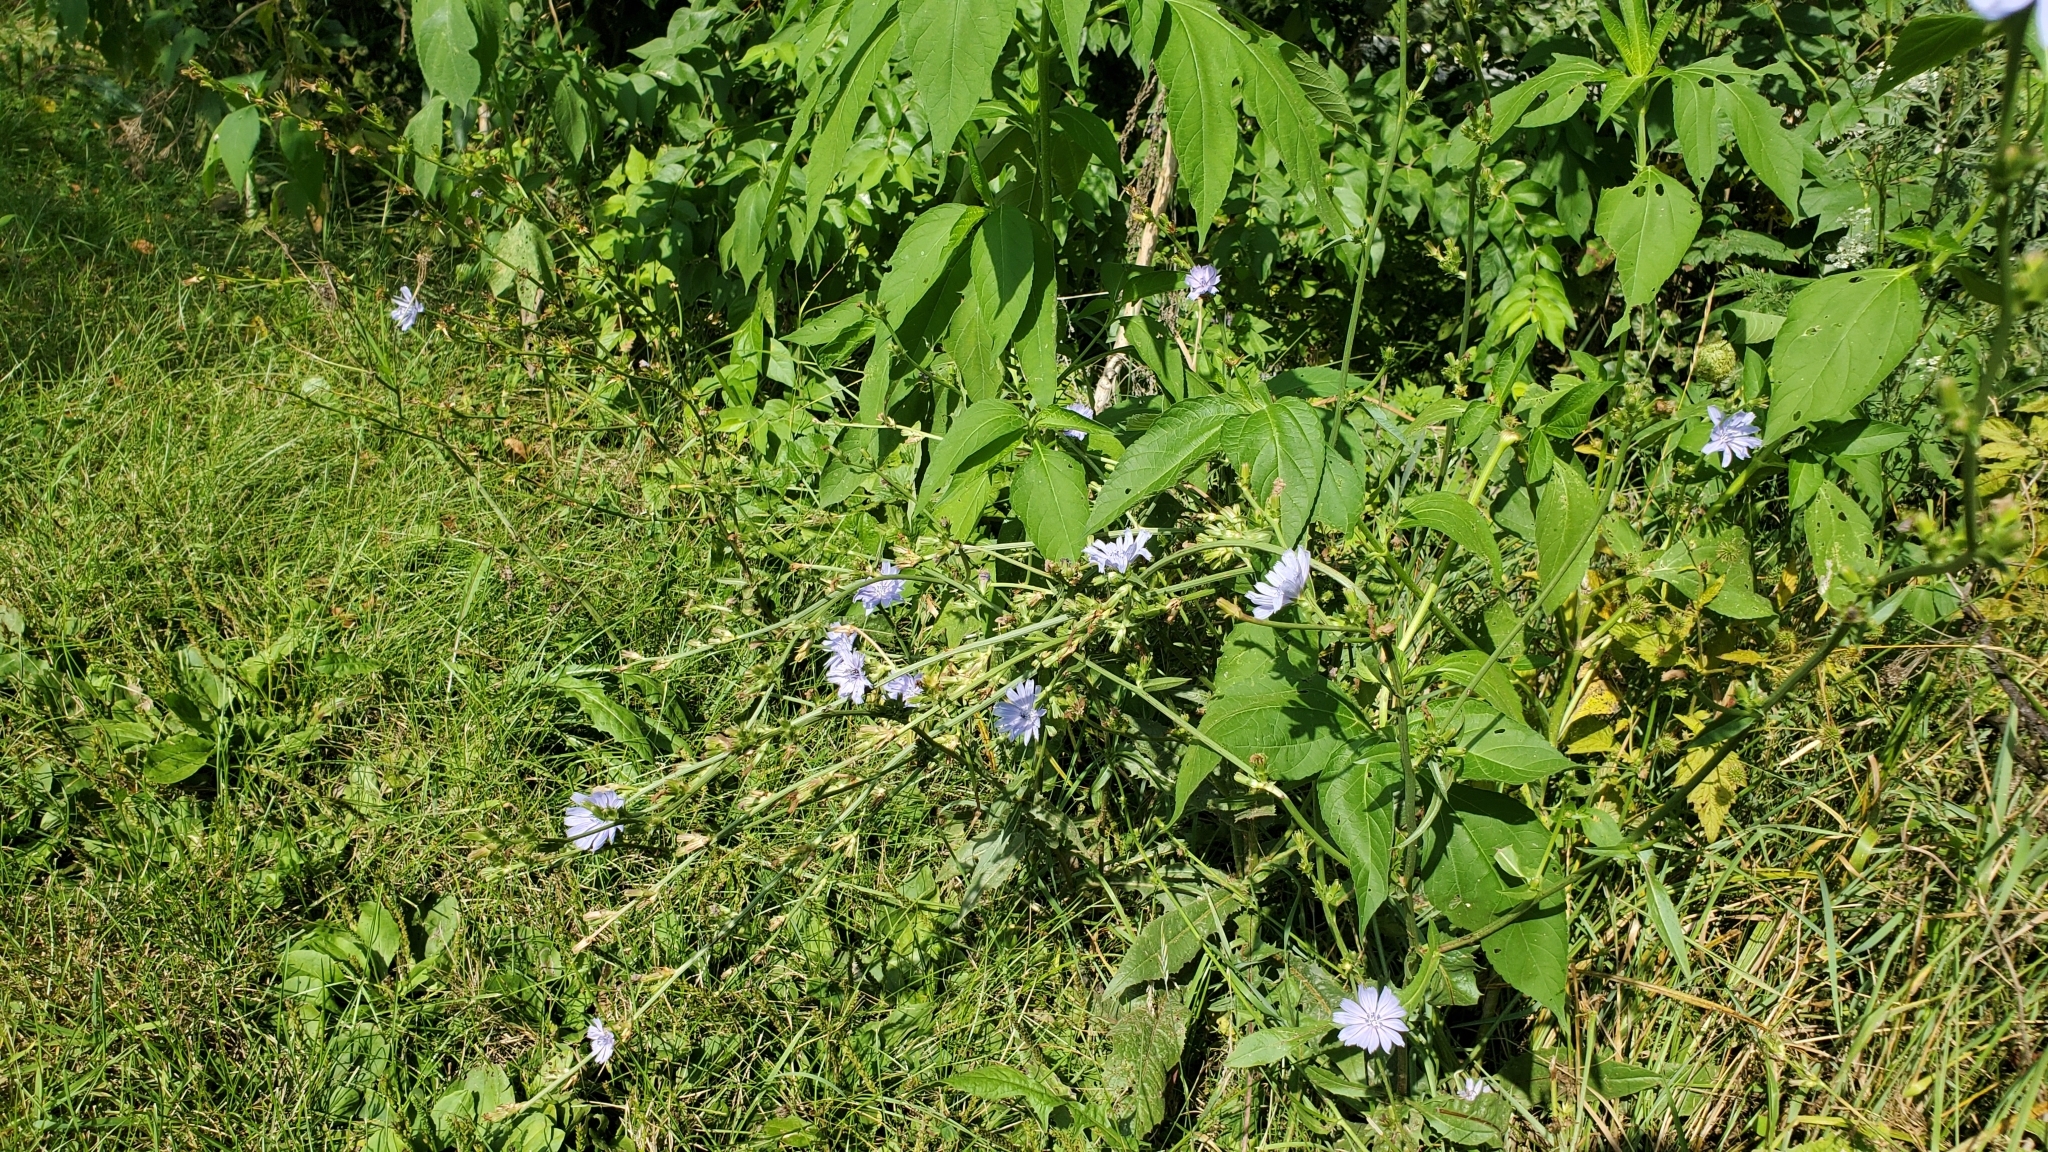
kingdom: Plantae
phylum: Tracheophyta
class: Magnoliopsida
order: Asterales
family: Asteraceae
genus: Cichorium
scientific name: Cichorium intybus
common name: Chicory
